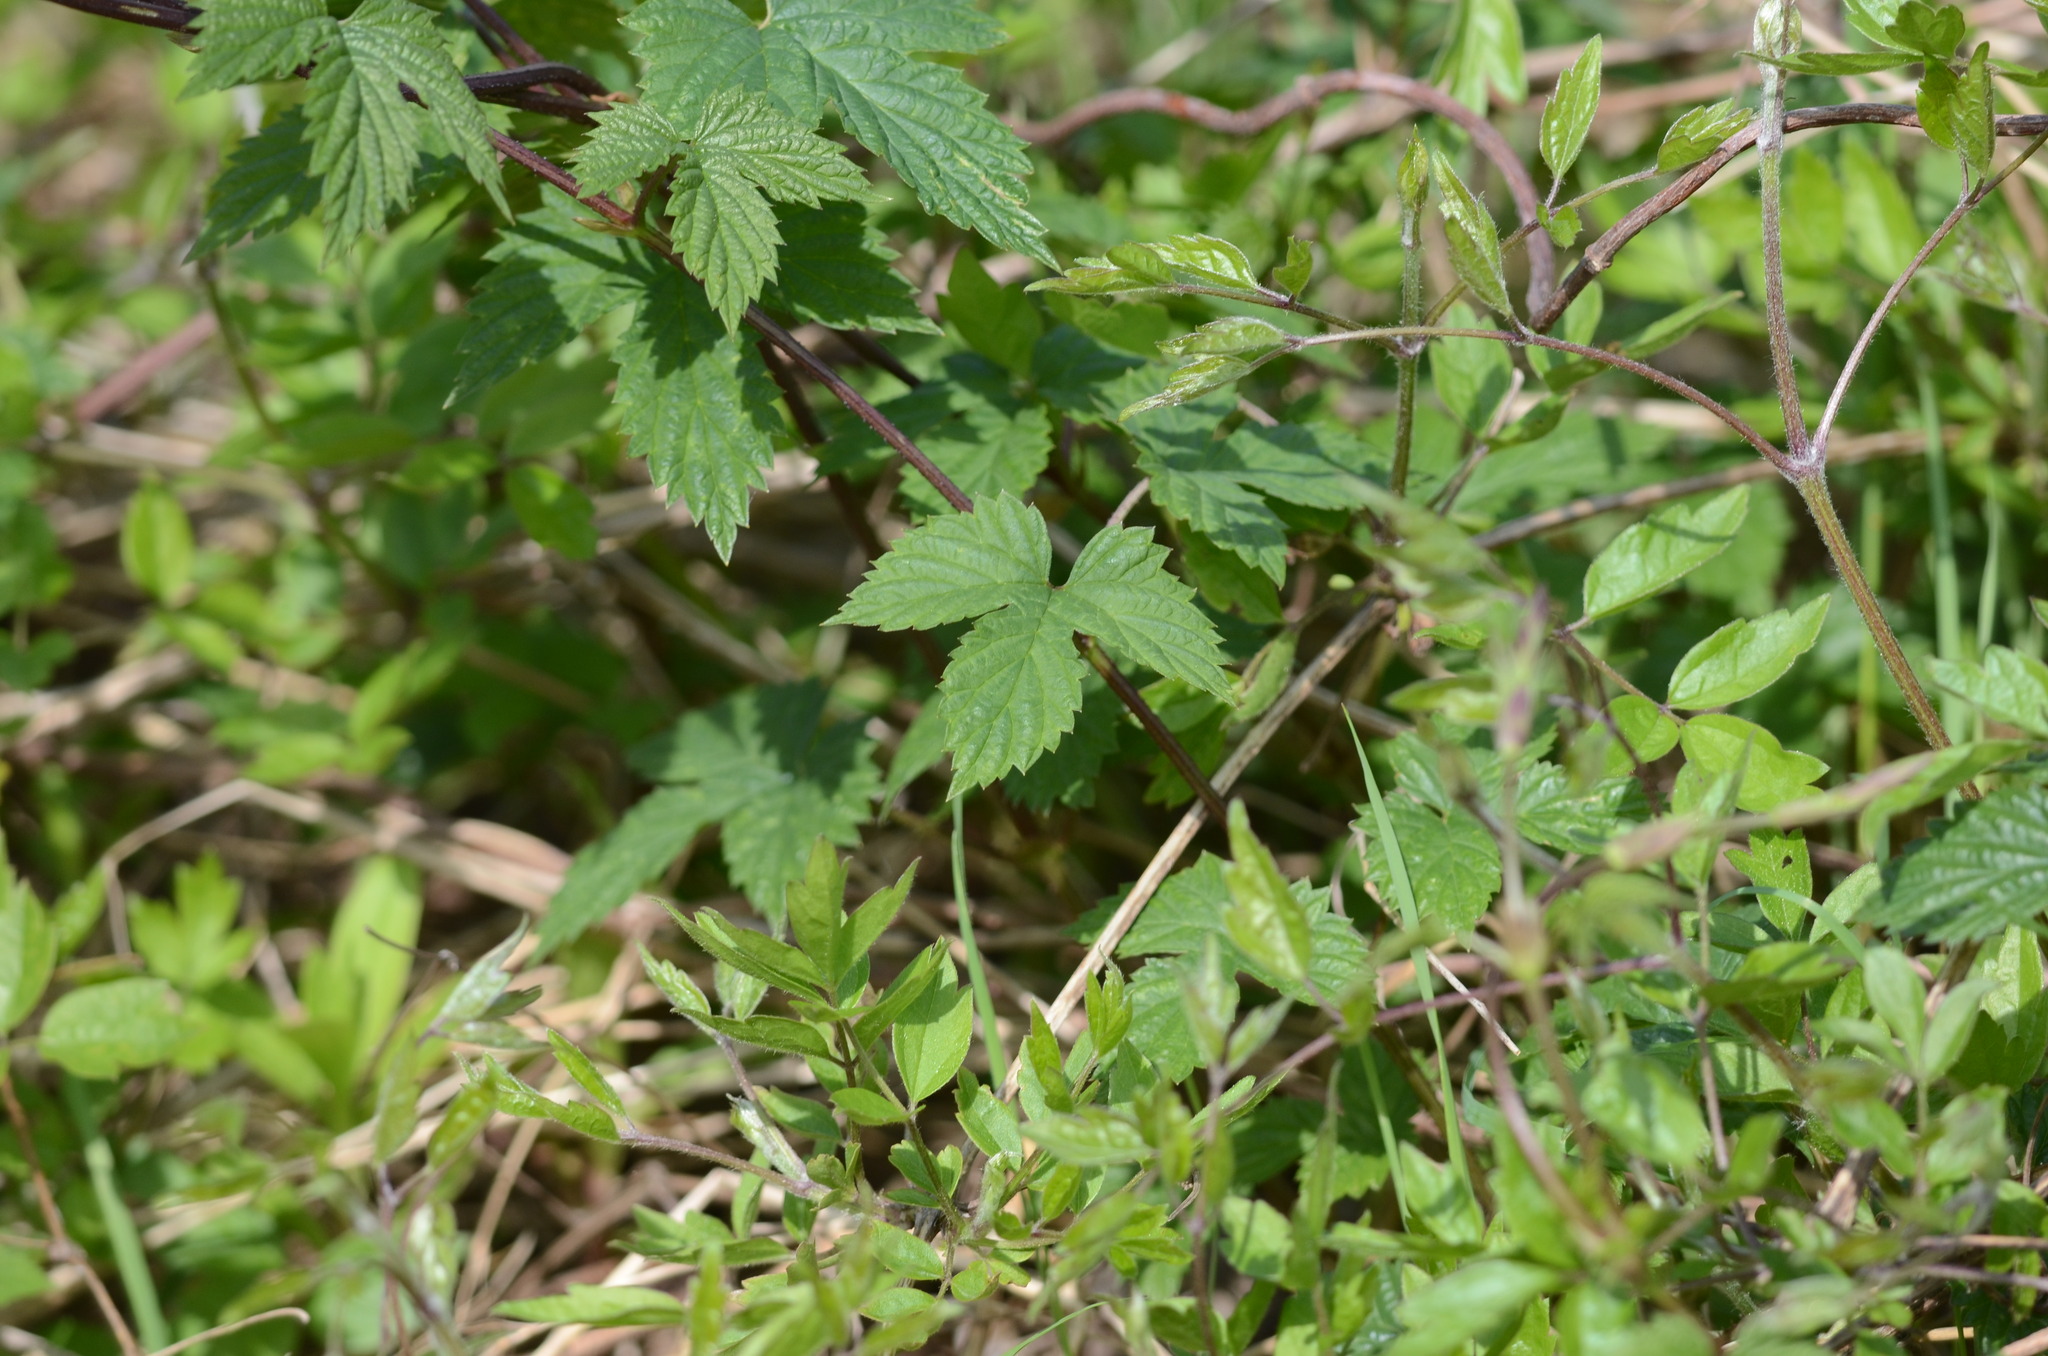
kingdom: Plantae
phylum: Tracheophyta
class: Magnoliopsida
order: Rosales
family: Cannabaceae
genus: Humulus
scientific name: Humulus lupulus
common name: Hop
